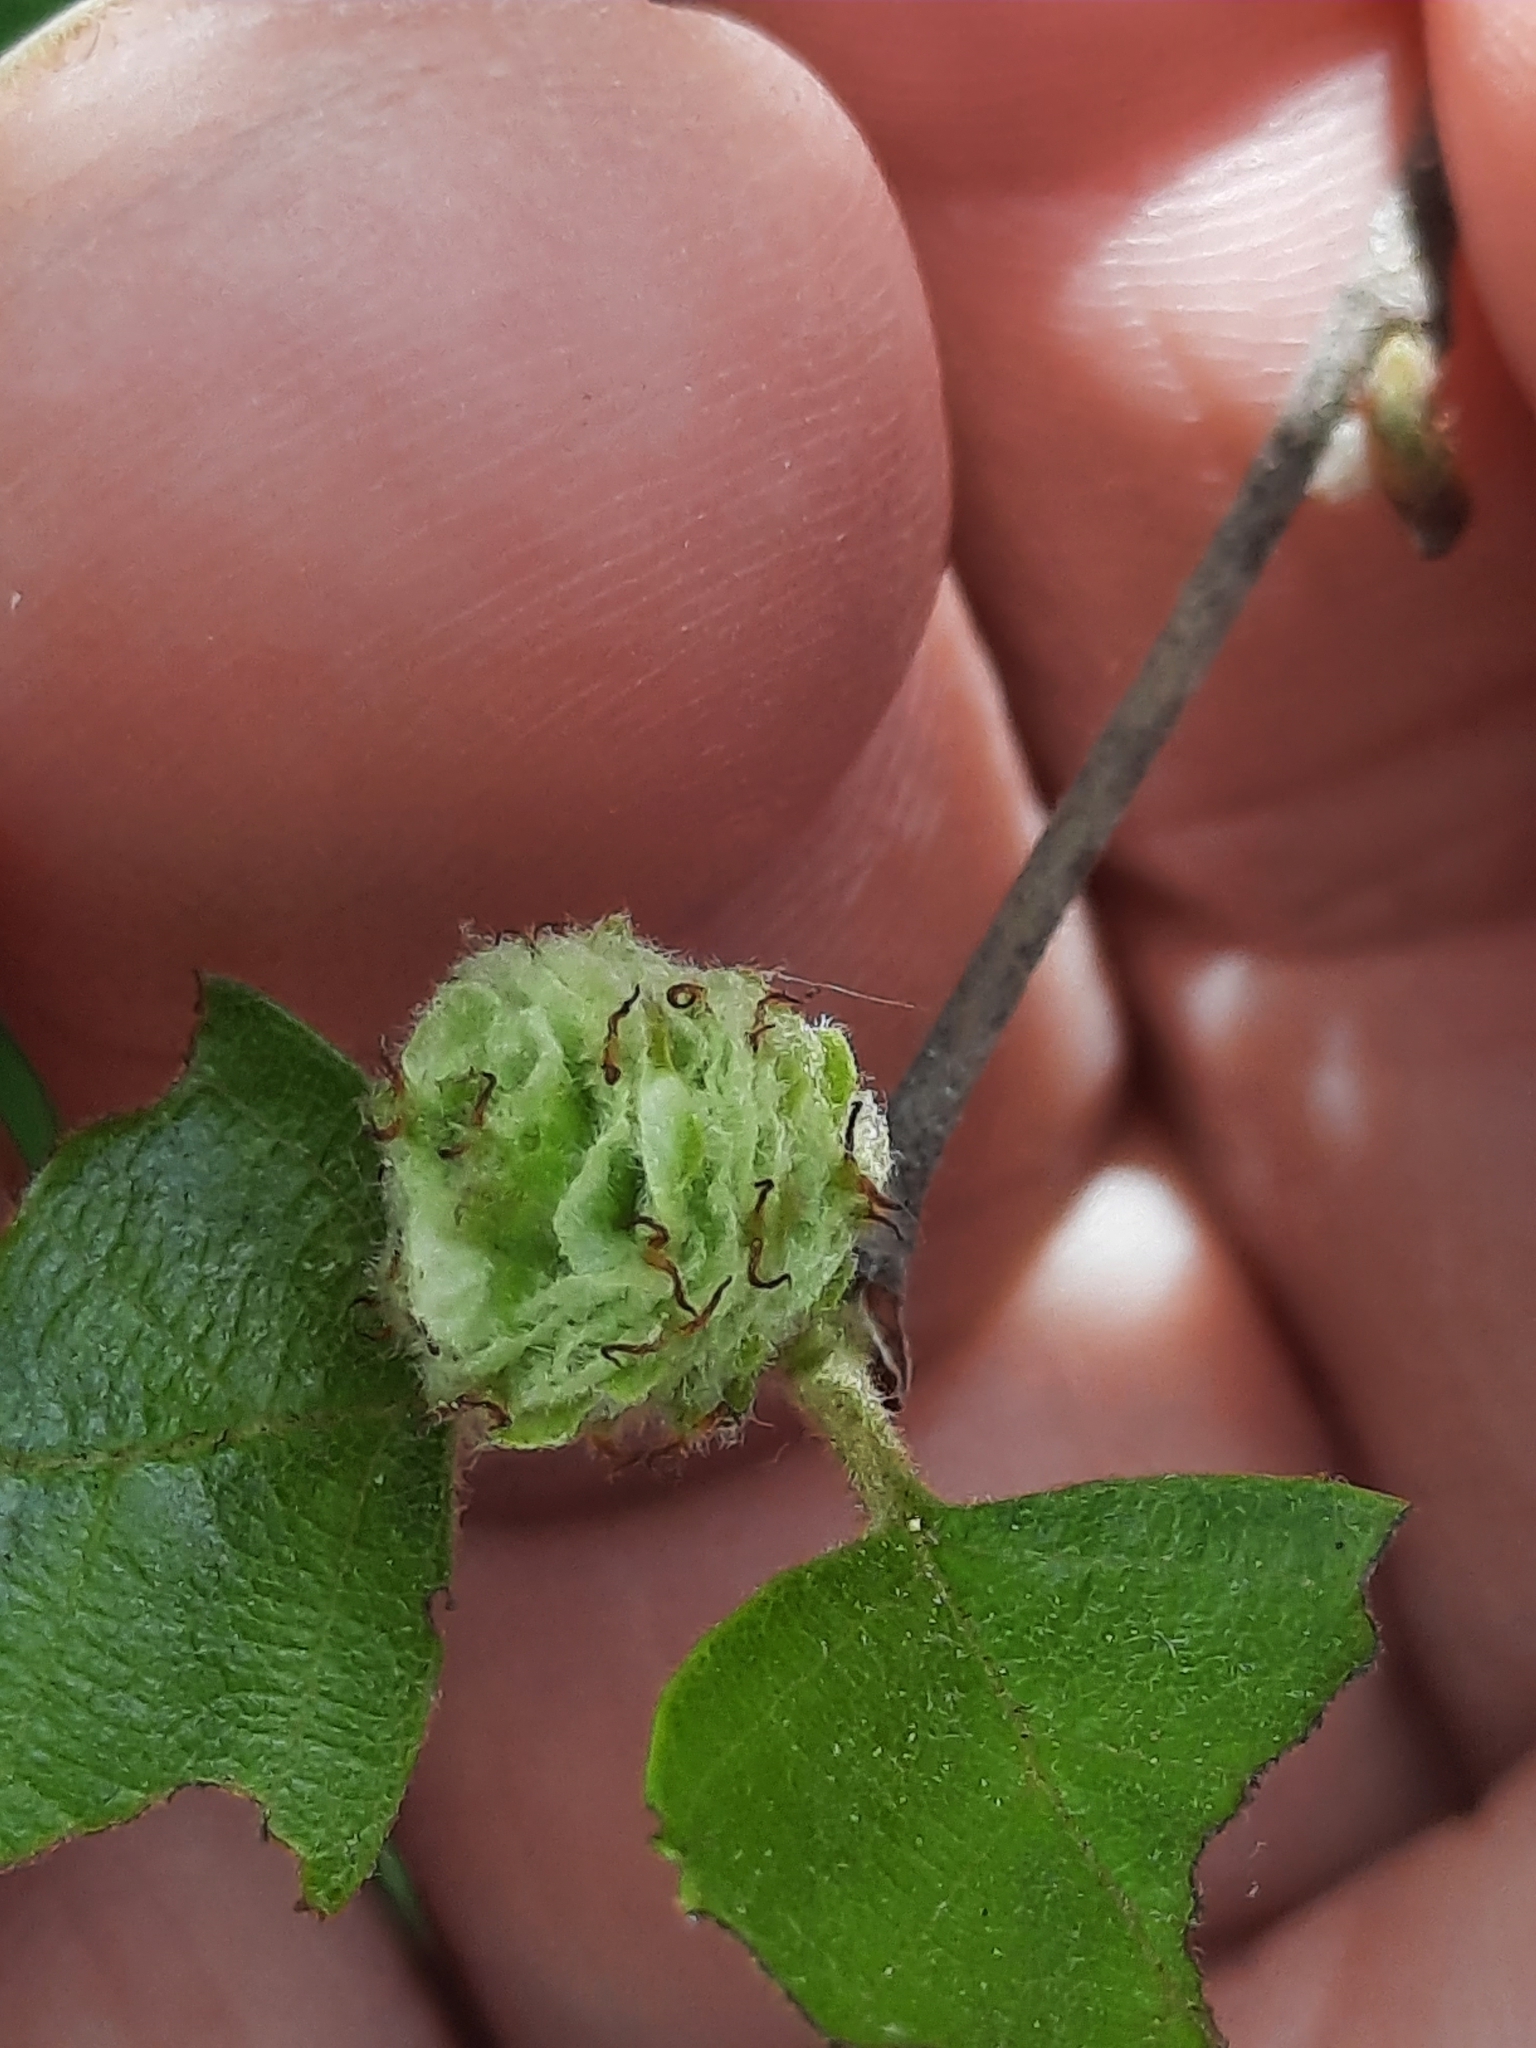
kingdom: Plantae
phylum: Tracheophyta
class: Magnoliopsida
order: Fagales
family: Betulaceae
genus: Betula
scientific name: Betula nigra
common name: Black birch
